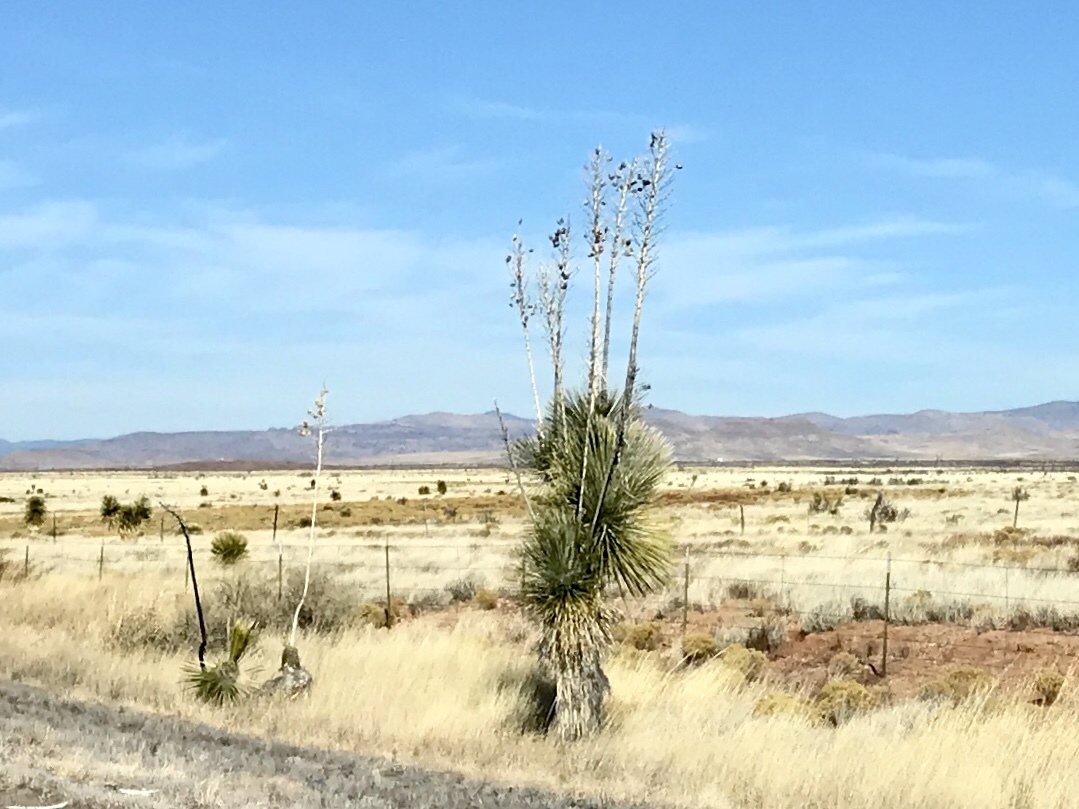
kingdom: Plantae
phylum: Tracheophyta
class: Liliopsida
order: Asparagales
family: Asparagaceae
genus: Yucca
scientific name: Yucca elata
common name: Palmella
